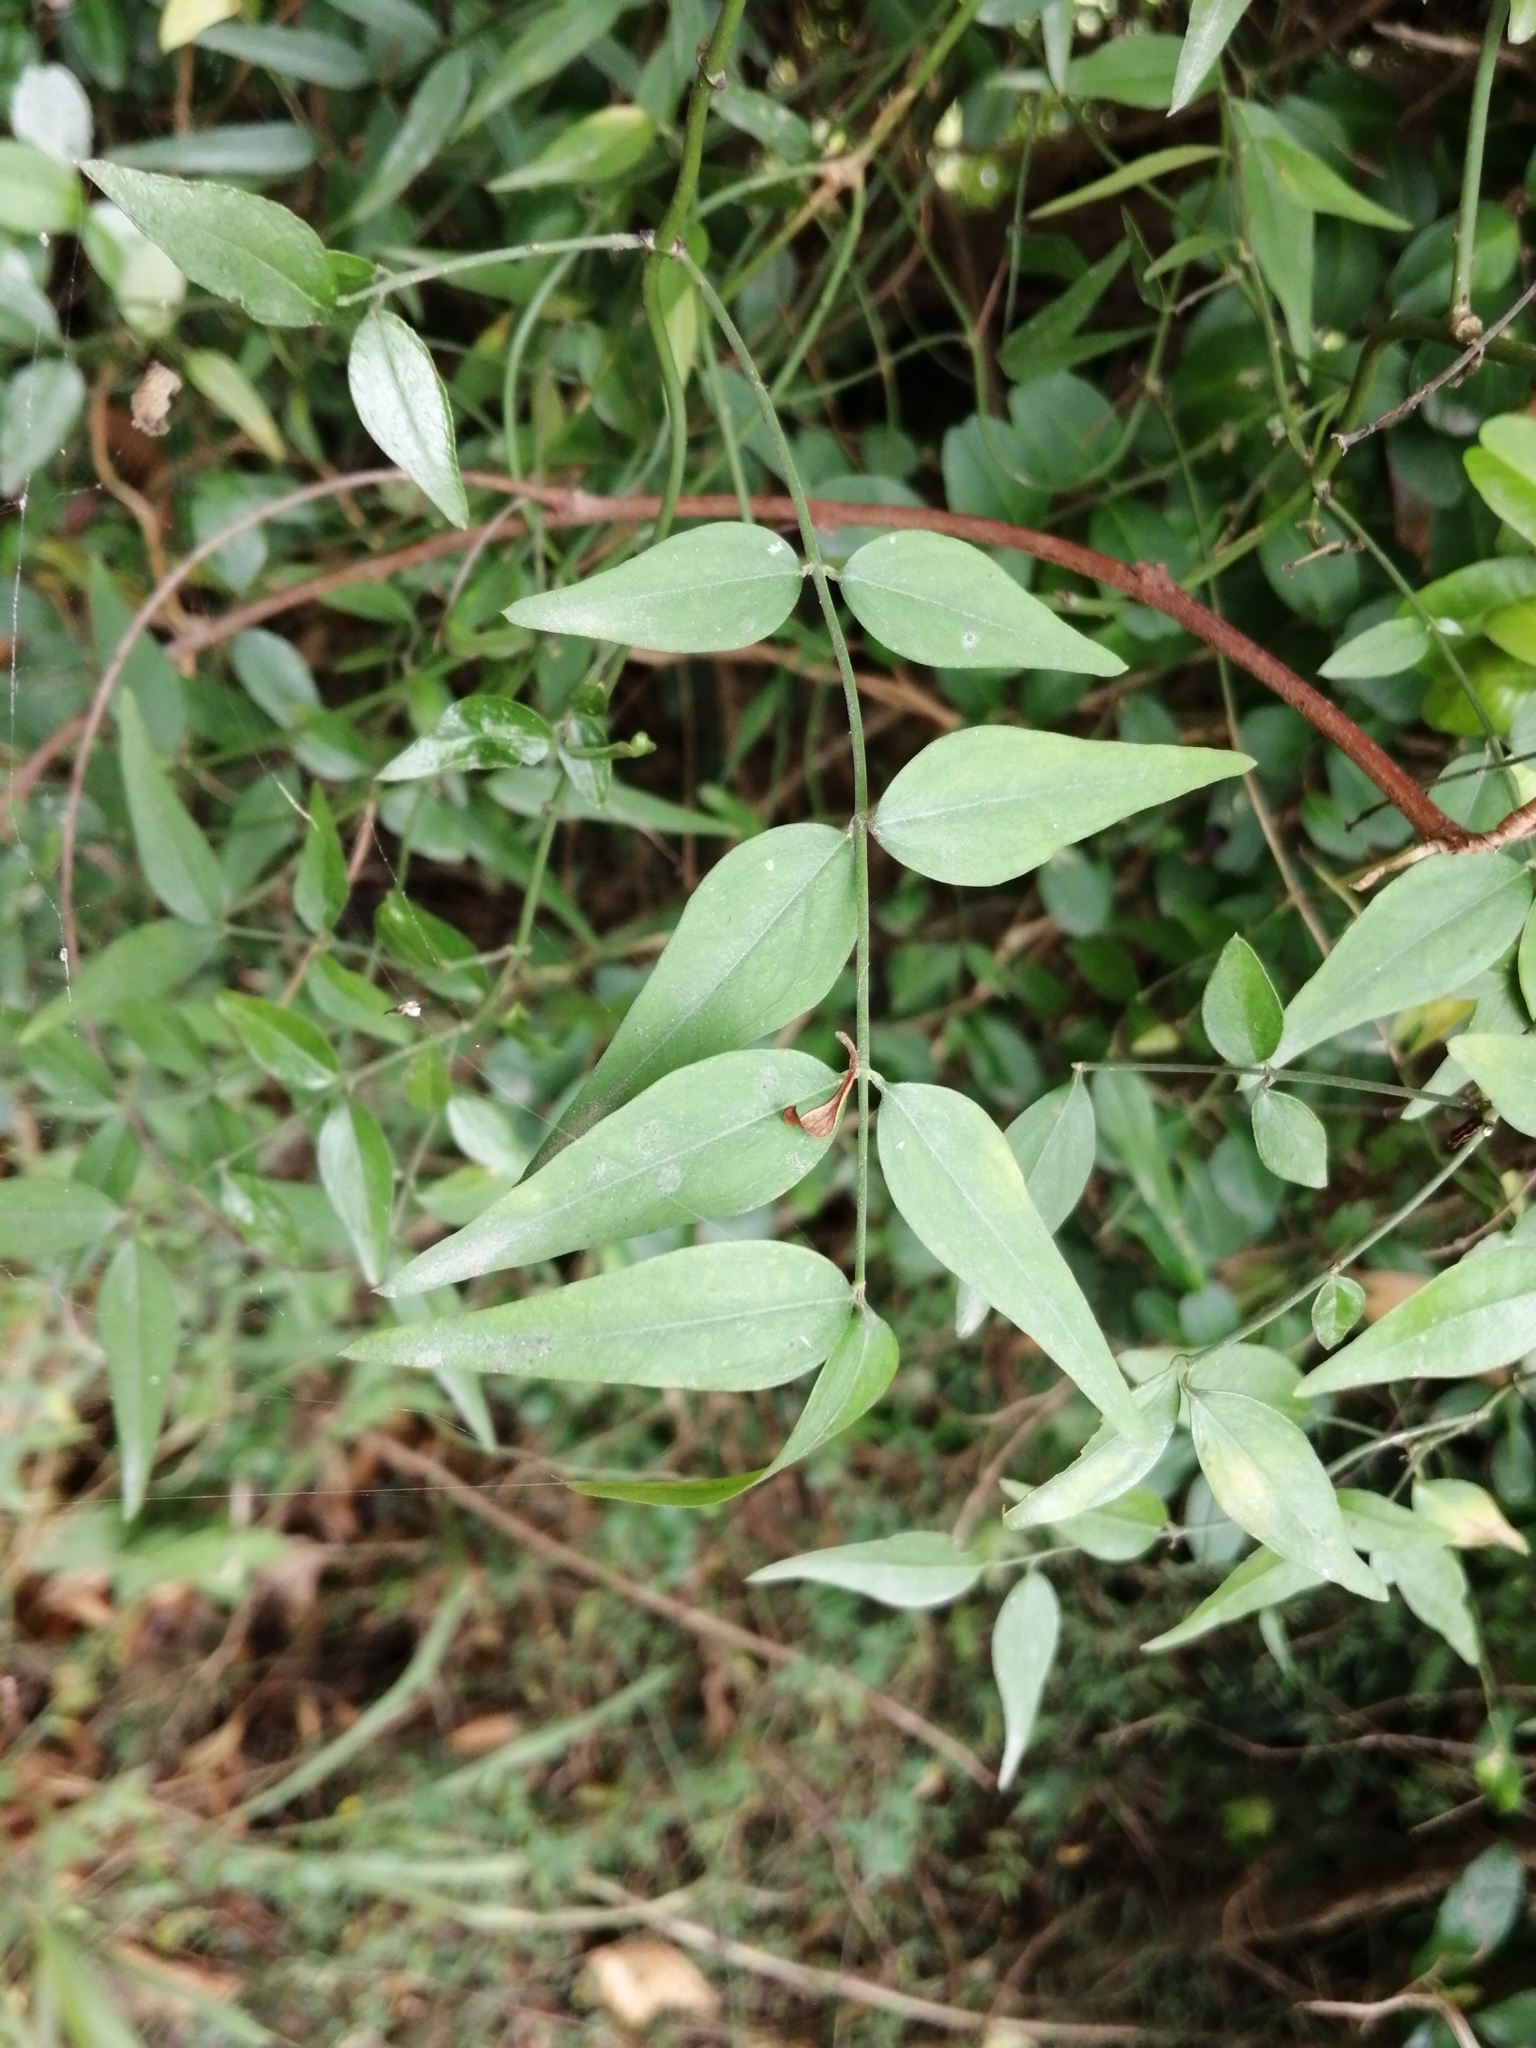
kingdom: Plantae
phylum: Tracheophyta
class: Magnoliopsida
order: Lamiales
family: Oleaceae
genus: Jasminum
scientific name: Jasminum nervosum
